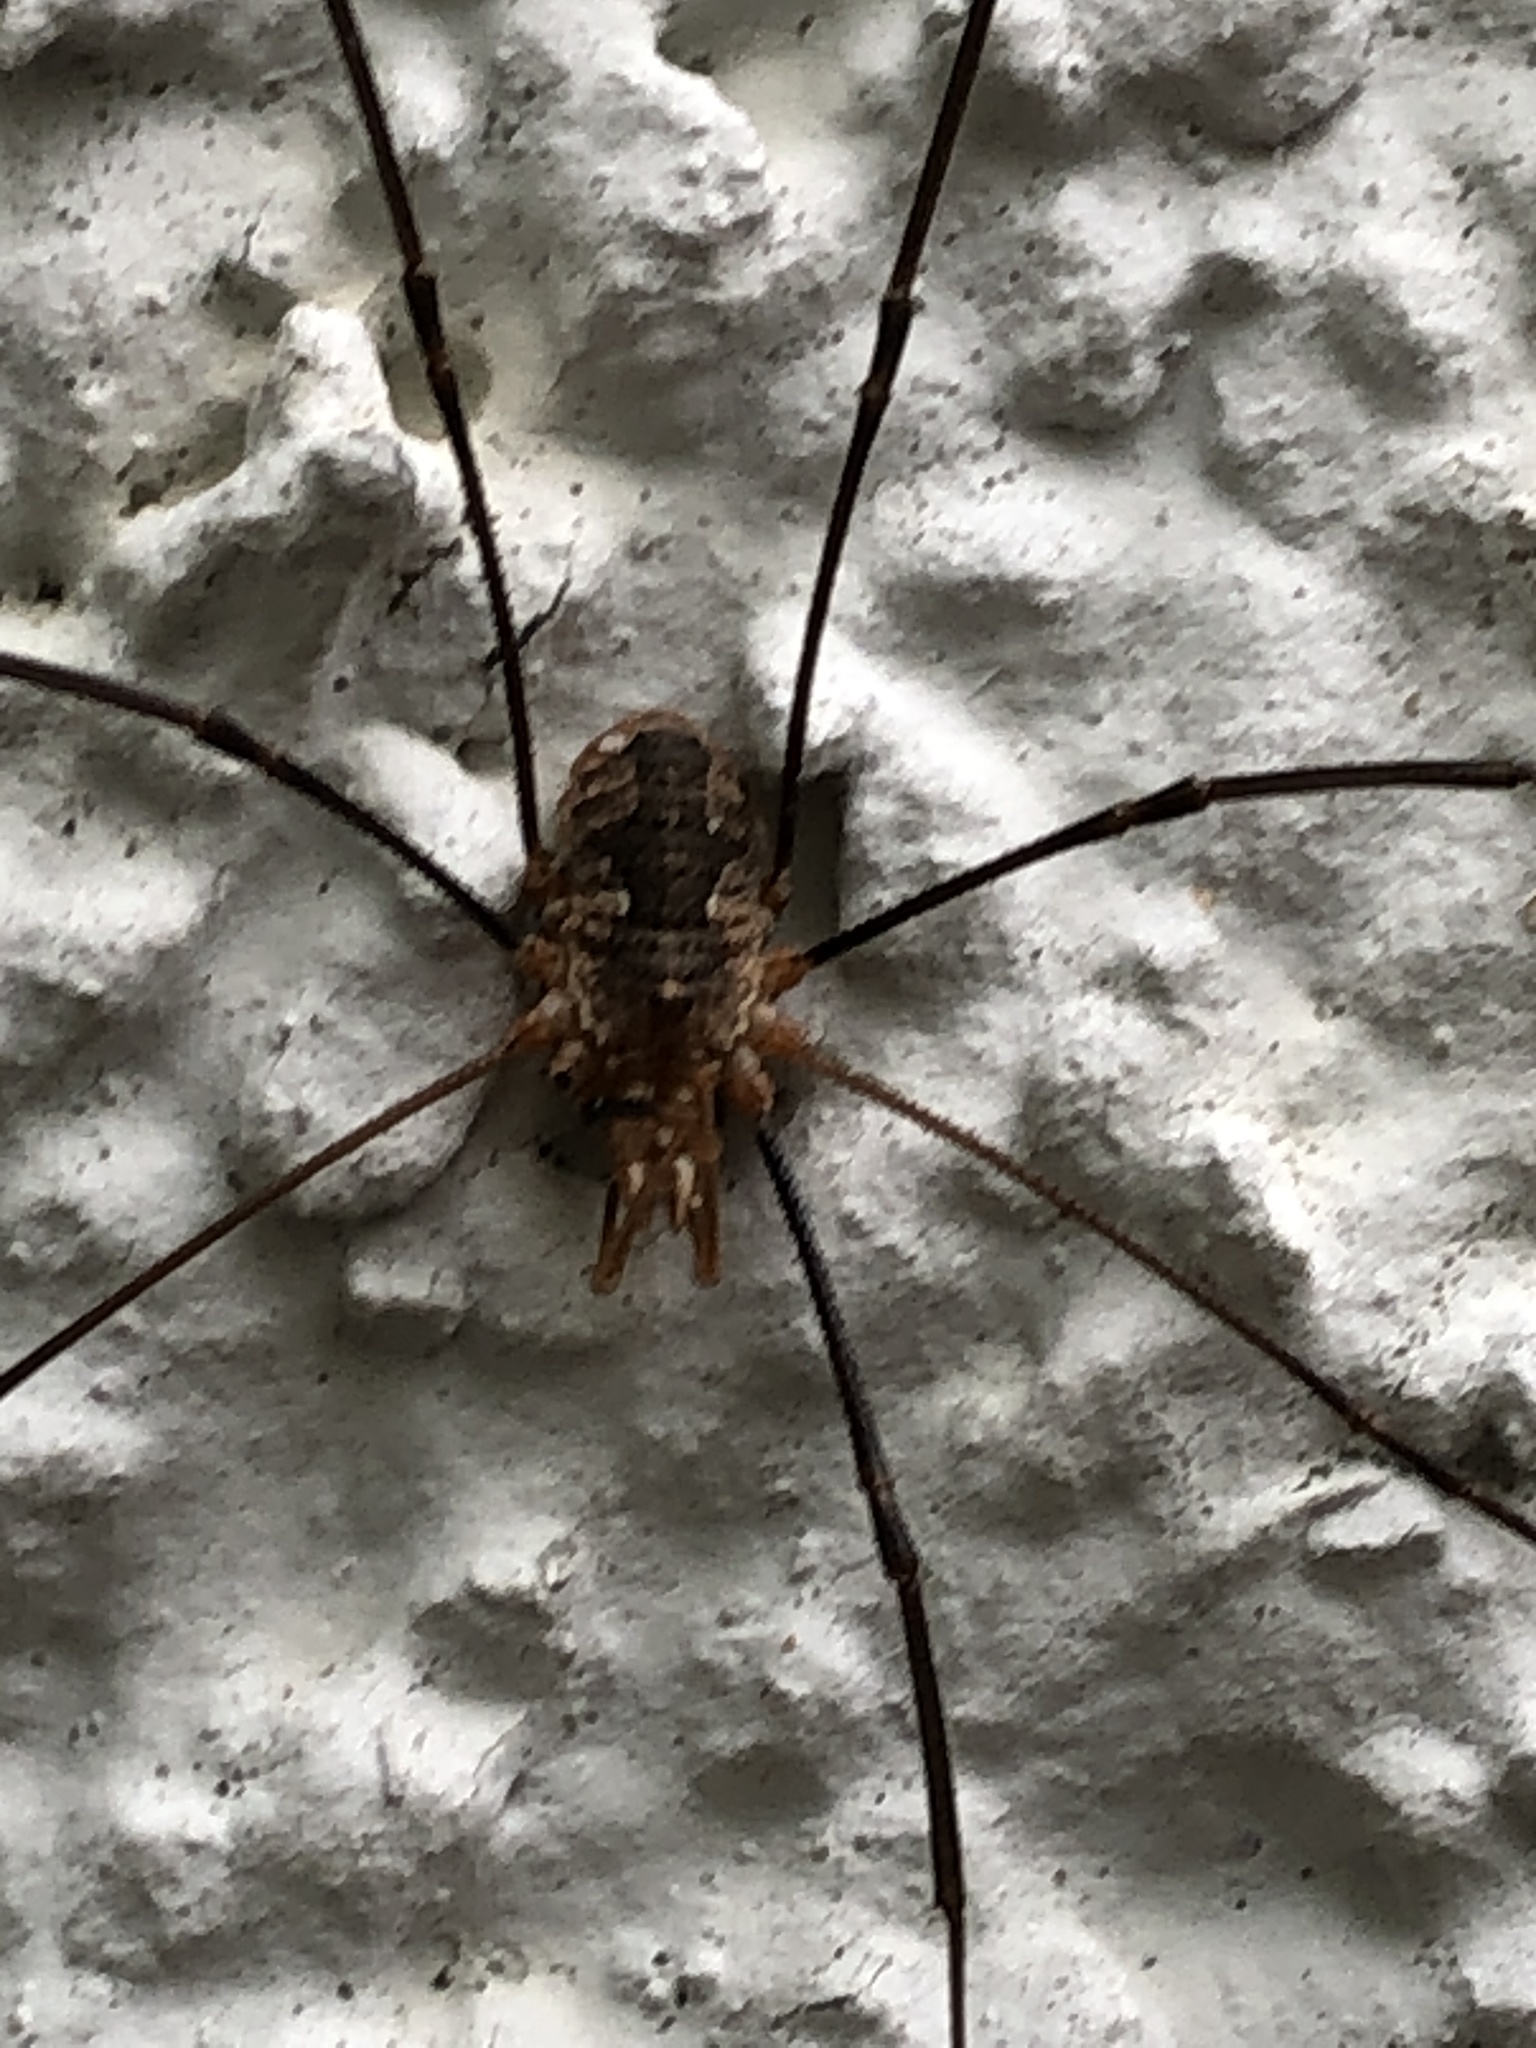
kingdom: Animalia
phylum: Arthropoda
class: Arachnida
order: Opiliones
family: Phalangiidae
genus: Phalangium
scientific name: Phalangium opilio
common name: Daddy longleg
